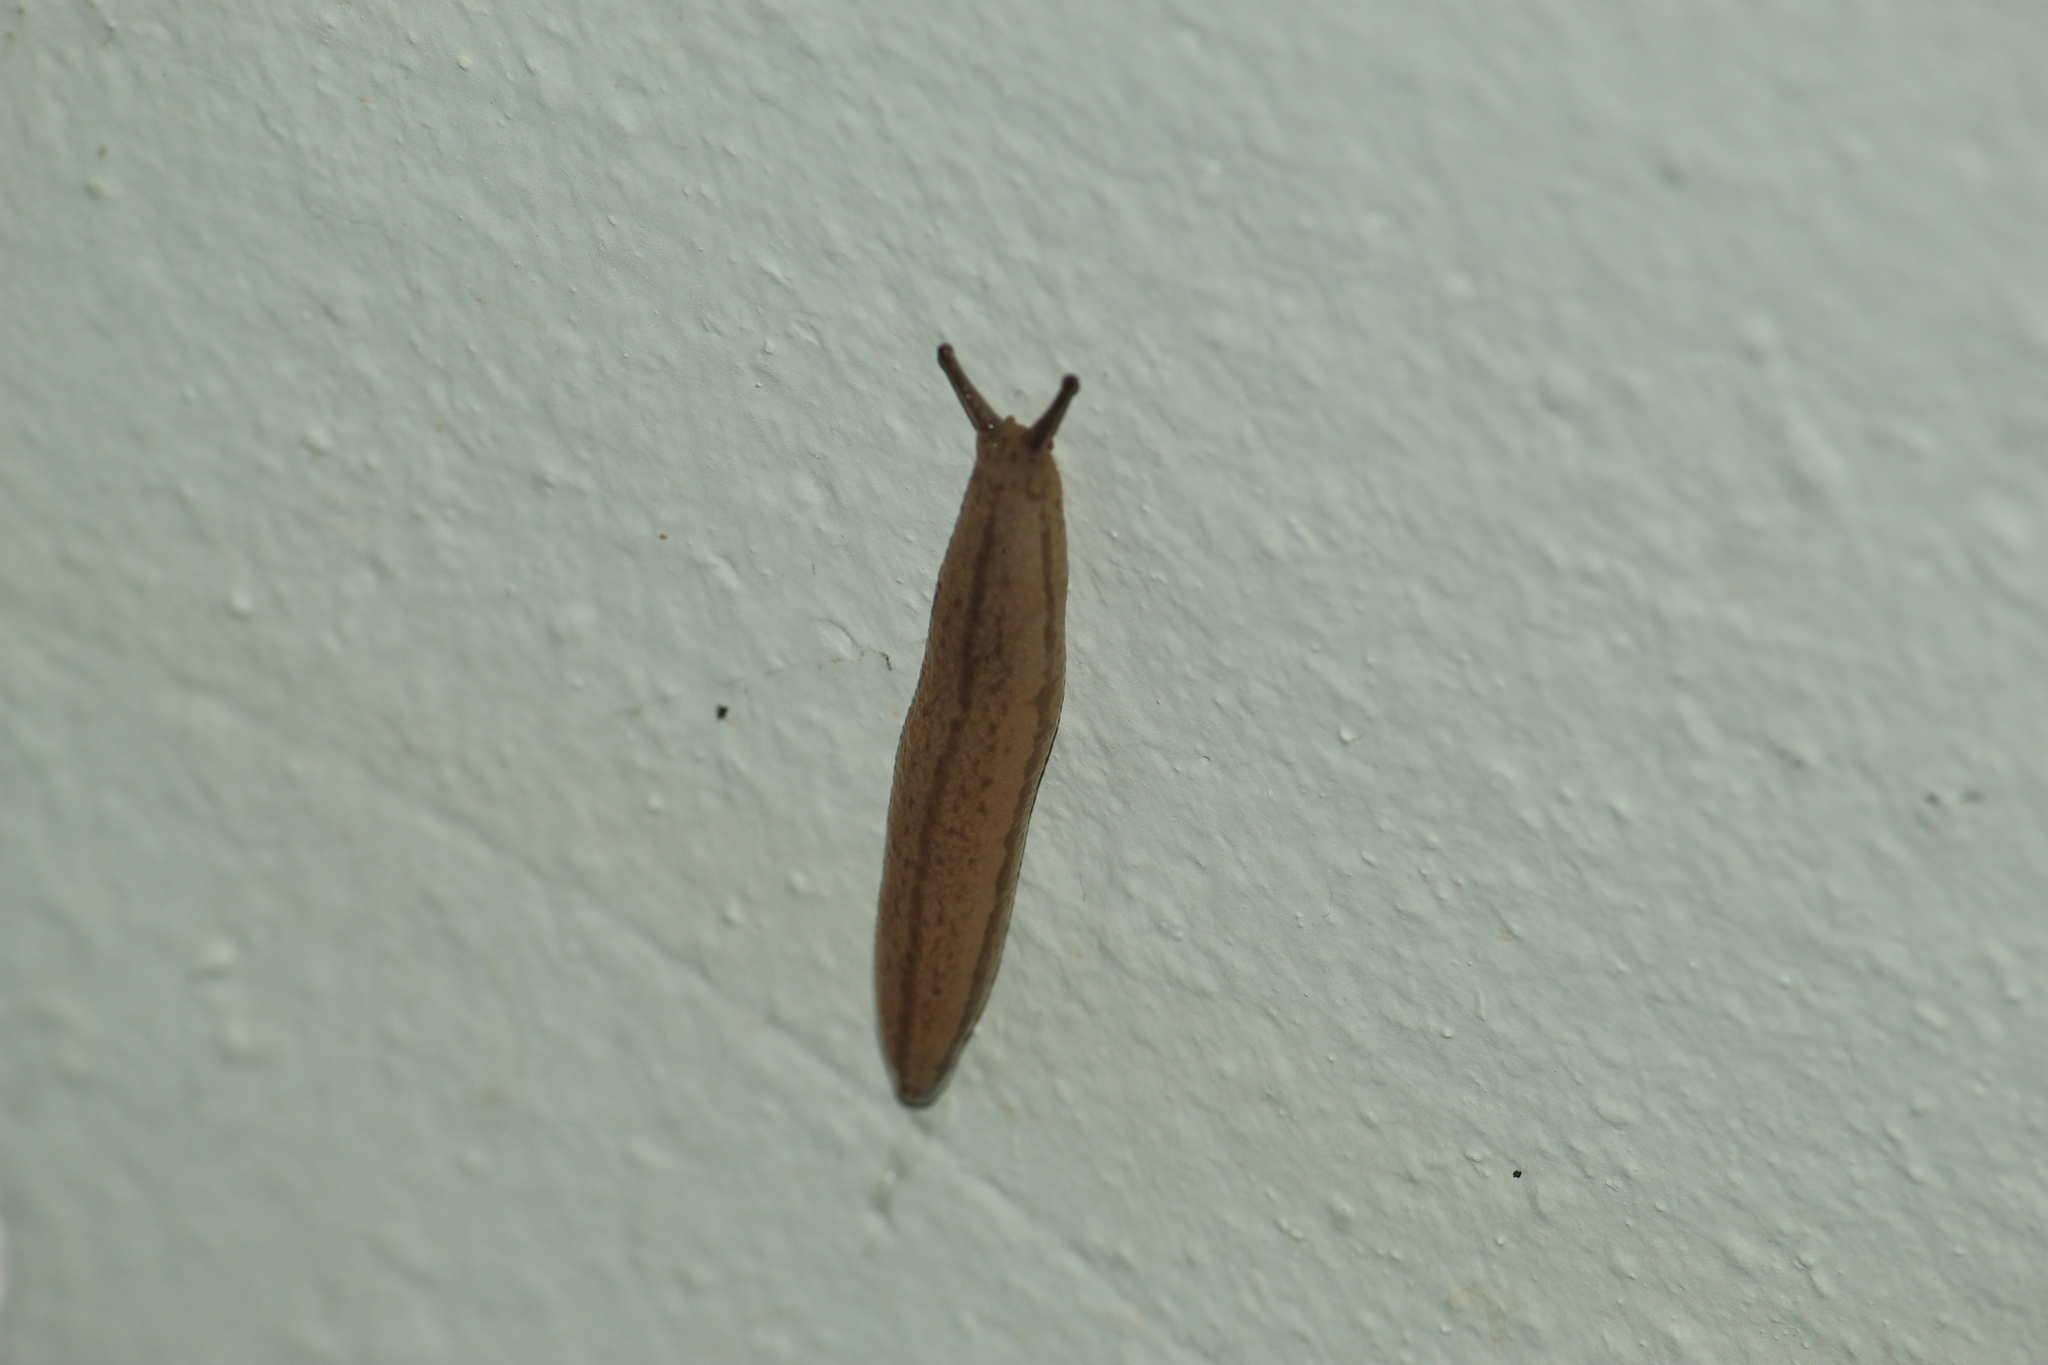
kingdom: Animalia
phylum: Mollusca
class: Gastropoda
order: Stylommatophora
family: Philomycidae
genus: Meghimatium
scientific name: Meghimatium pictum
